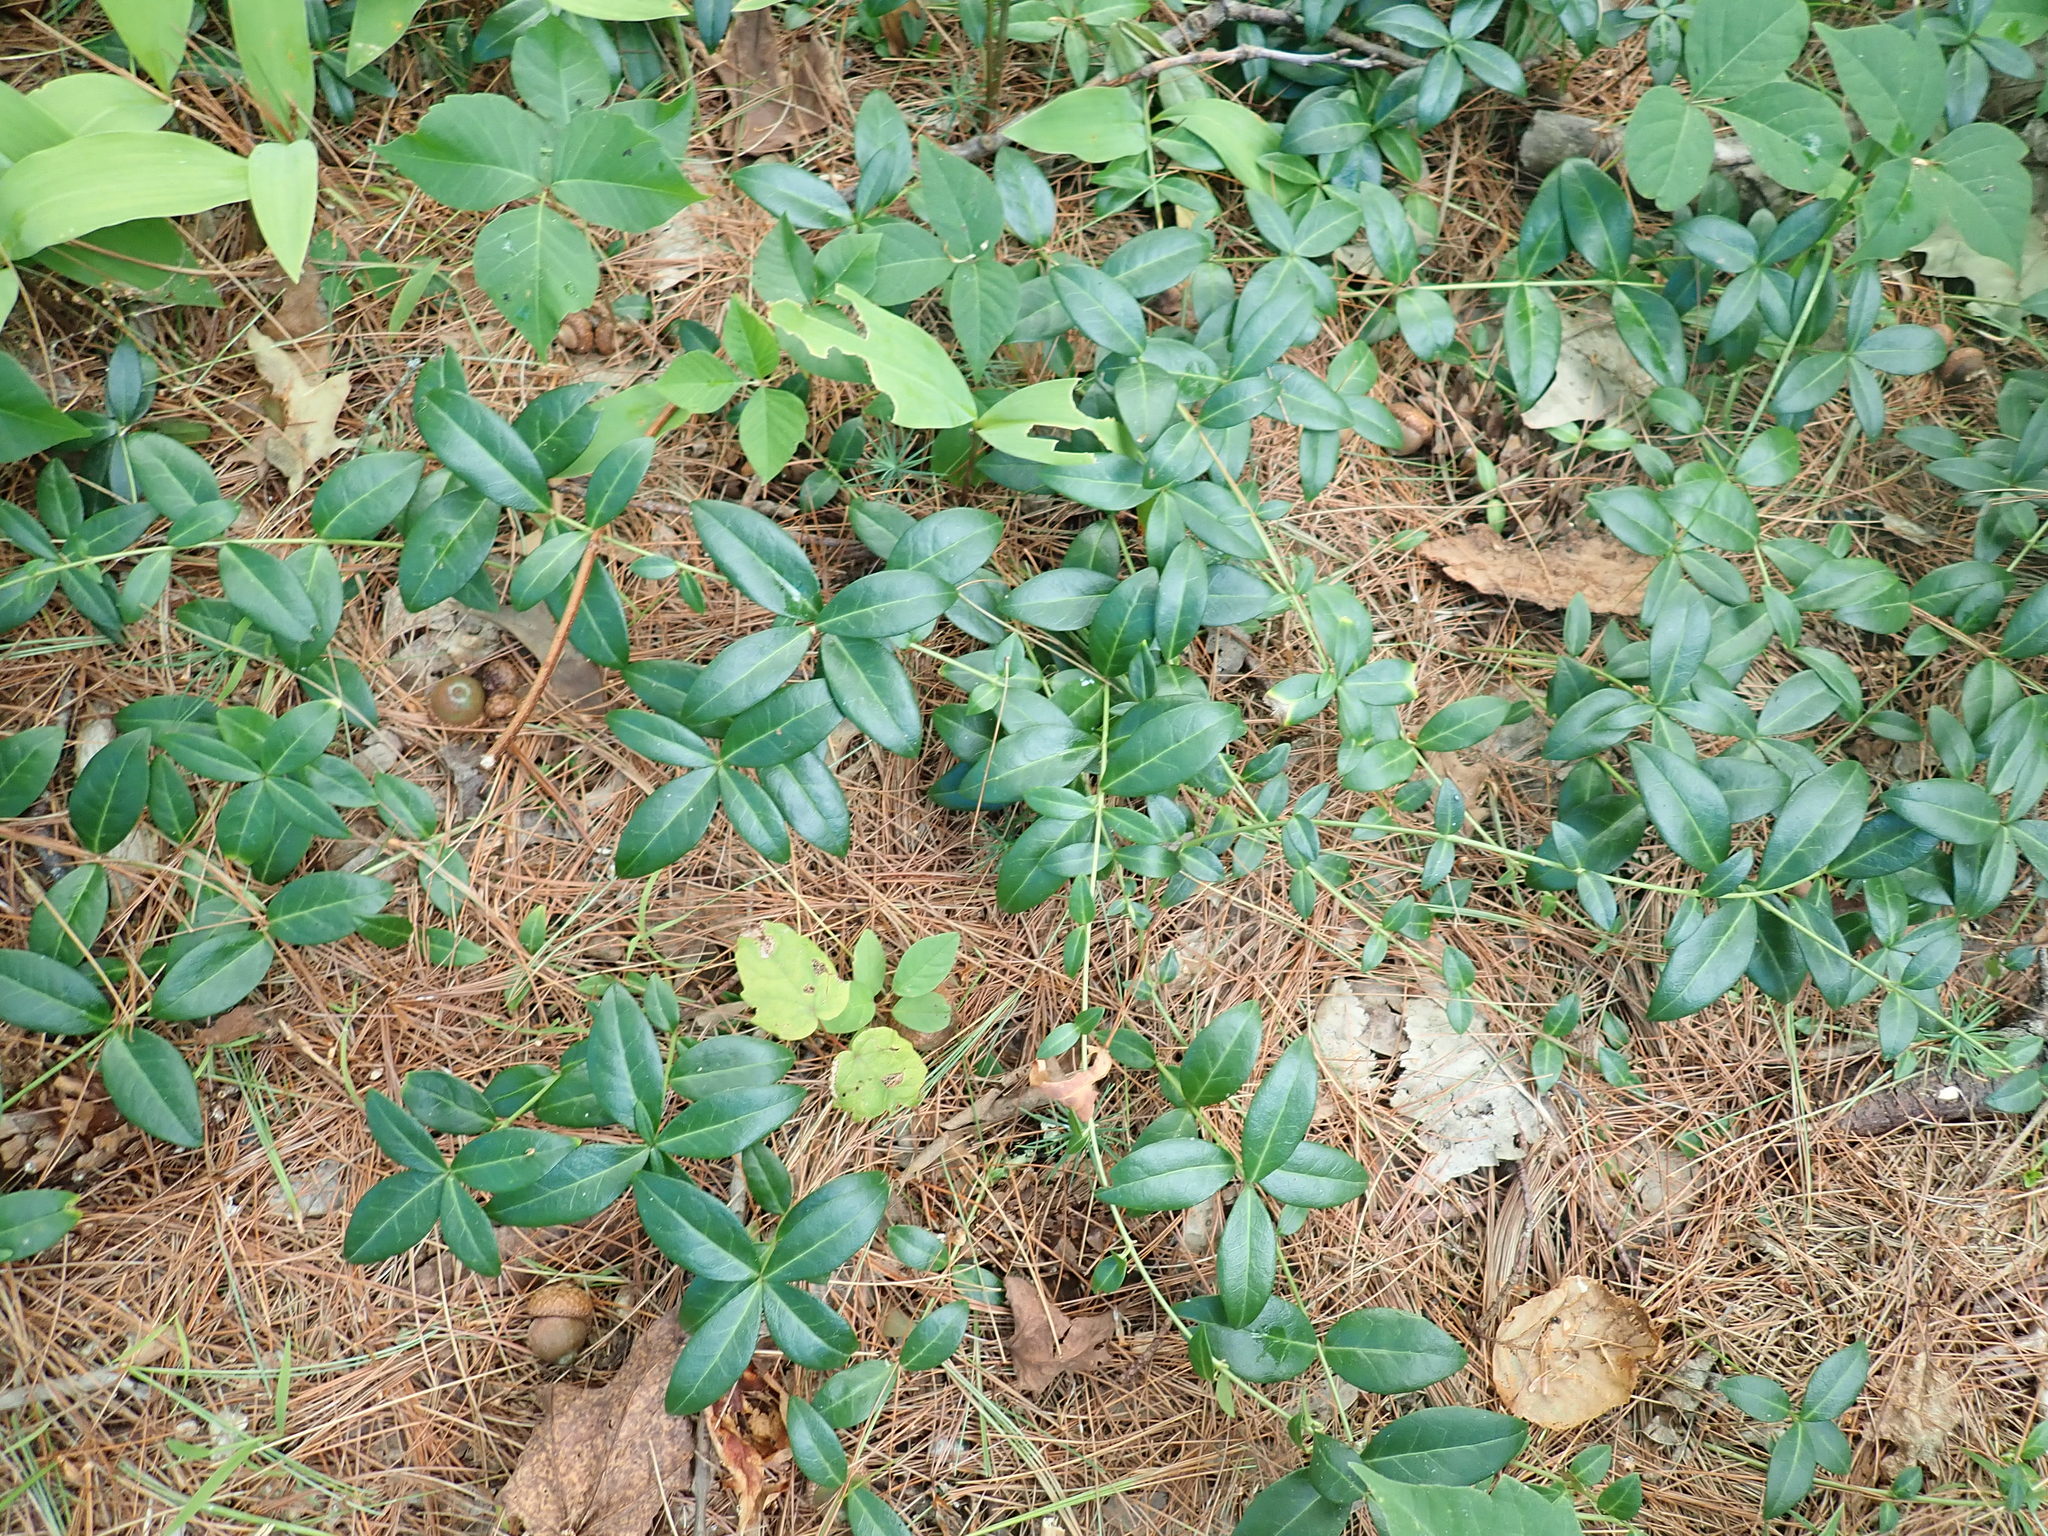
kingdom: Plantae
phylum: Tracheophyta
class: Magnoliopsida
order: Gentianales
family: Apocynaceae
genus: Vinca
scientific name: Vinca minor
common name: Lesser periwinkle
